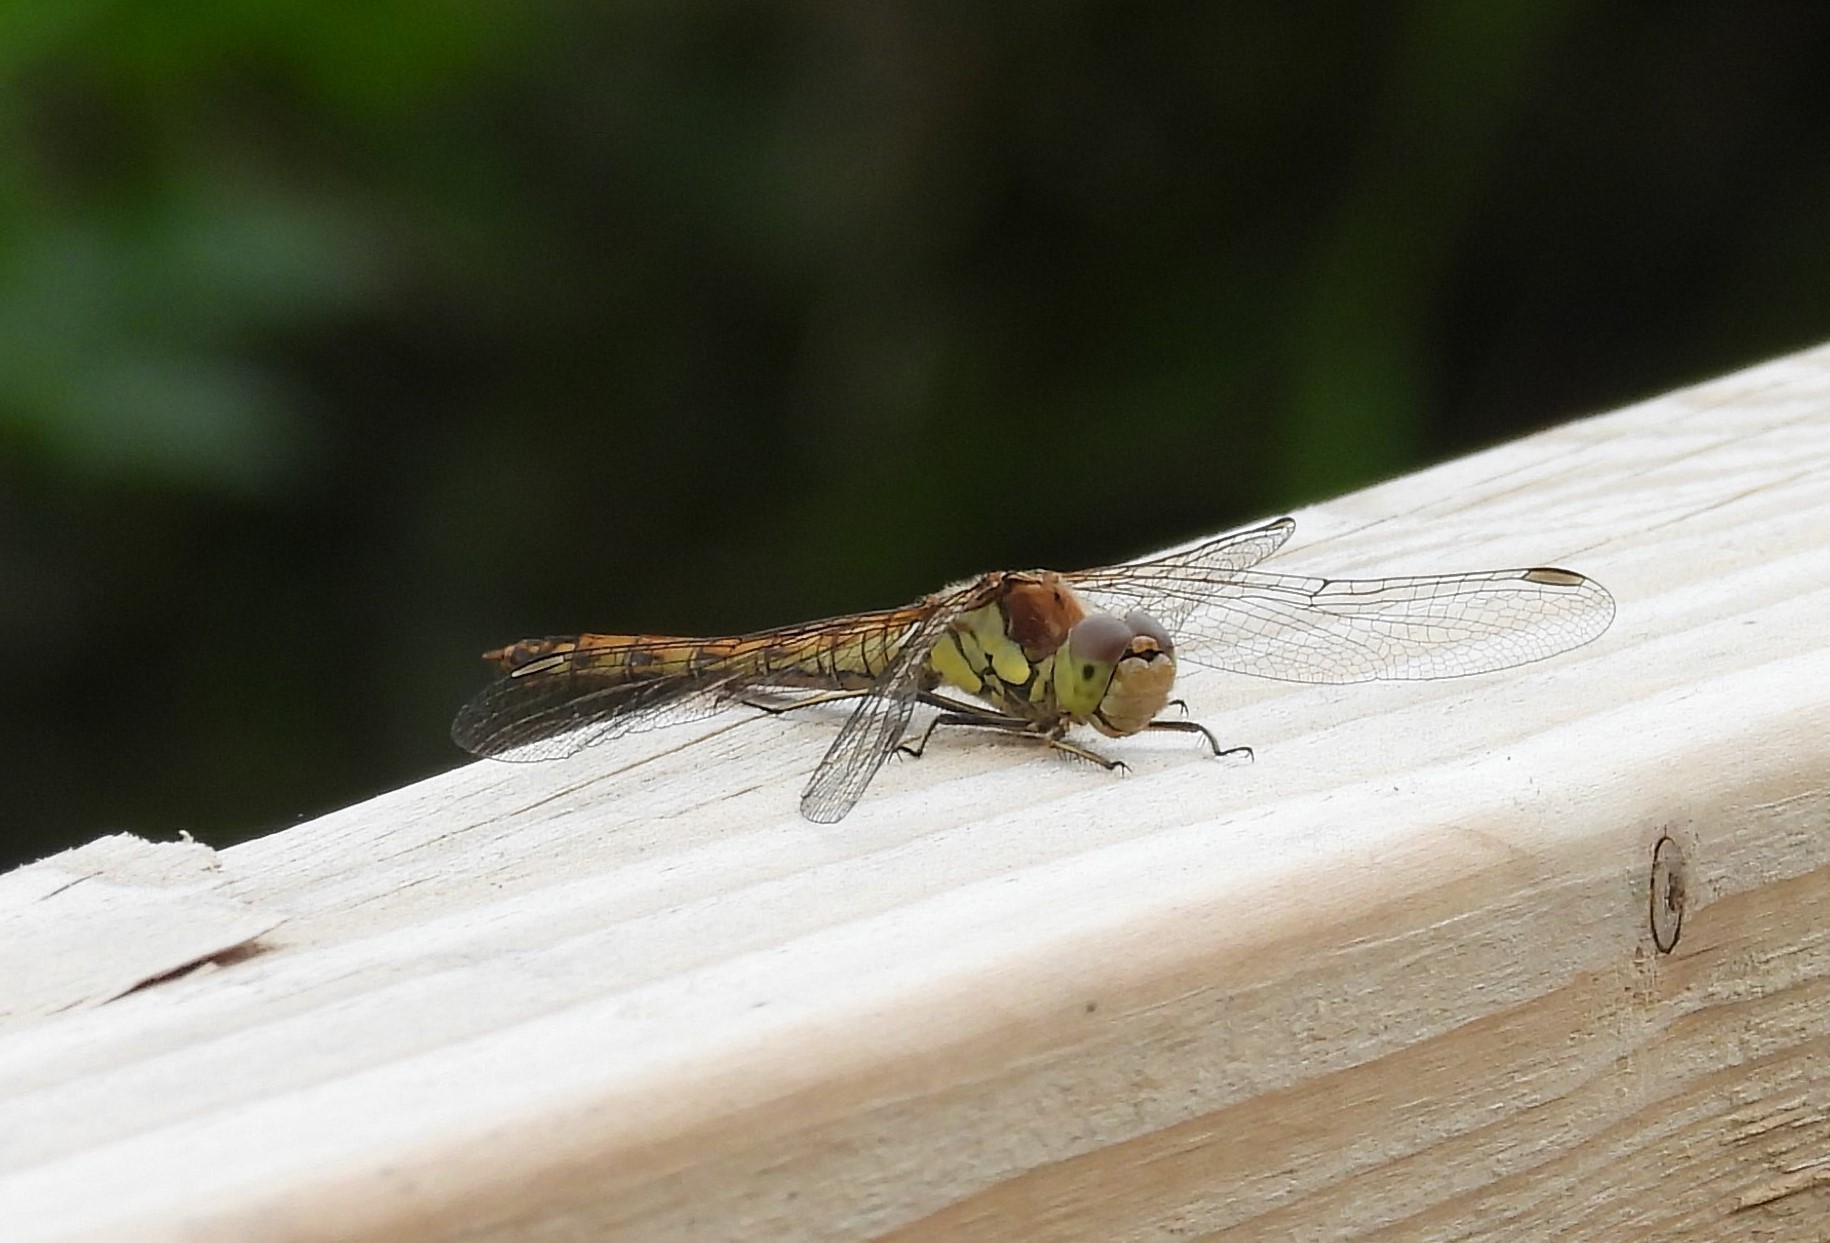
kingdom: Animalia
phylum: Arthropoda
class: Insecta
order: Odonata
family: Libellulidae
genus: Sympetrum
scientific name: Sympetrum striolatum
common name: Common darter
